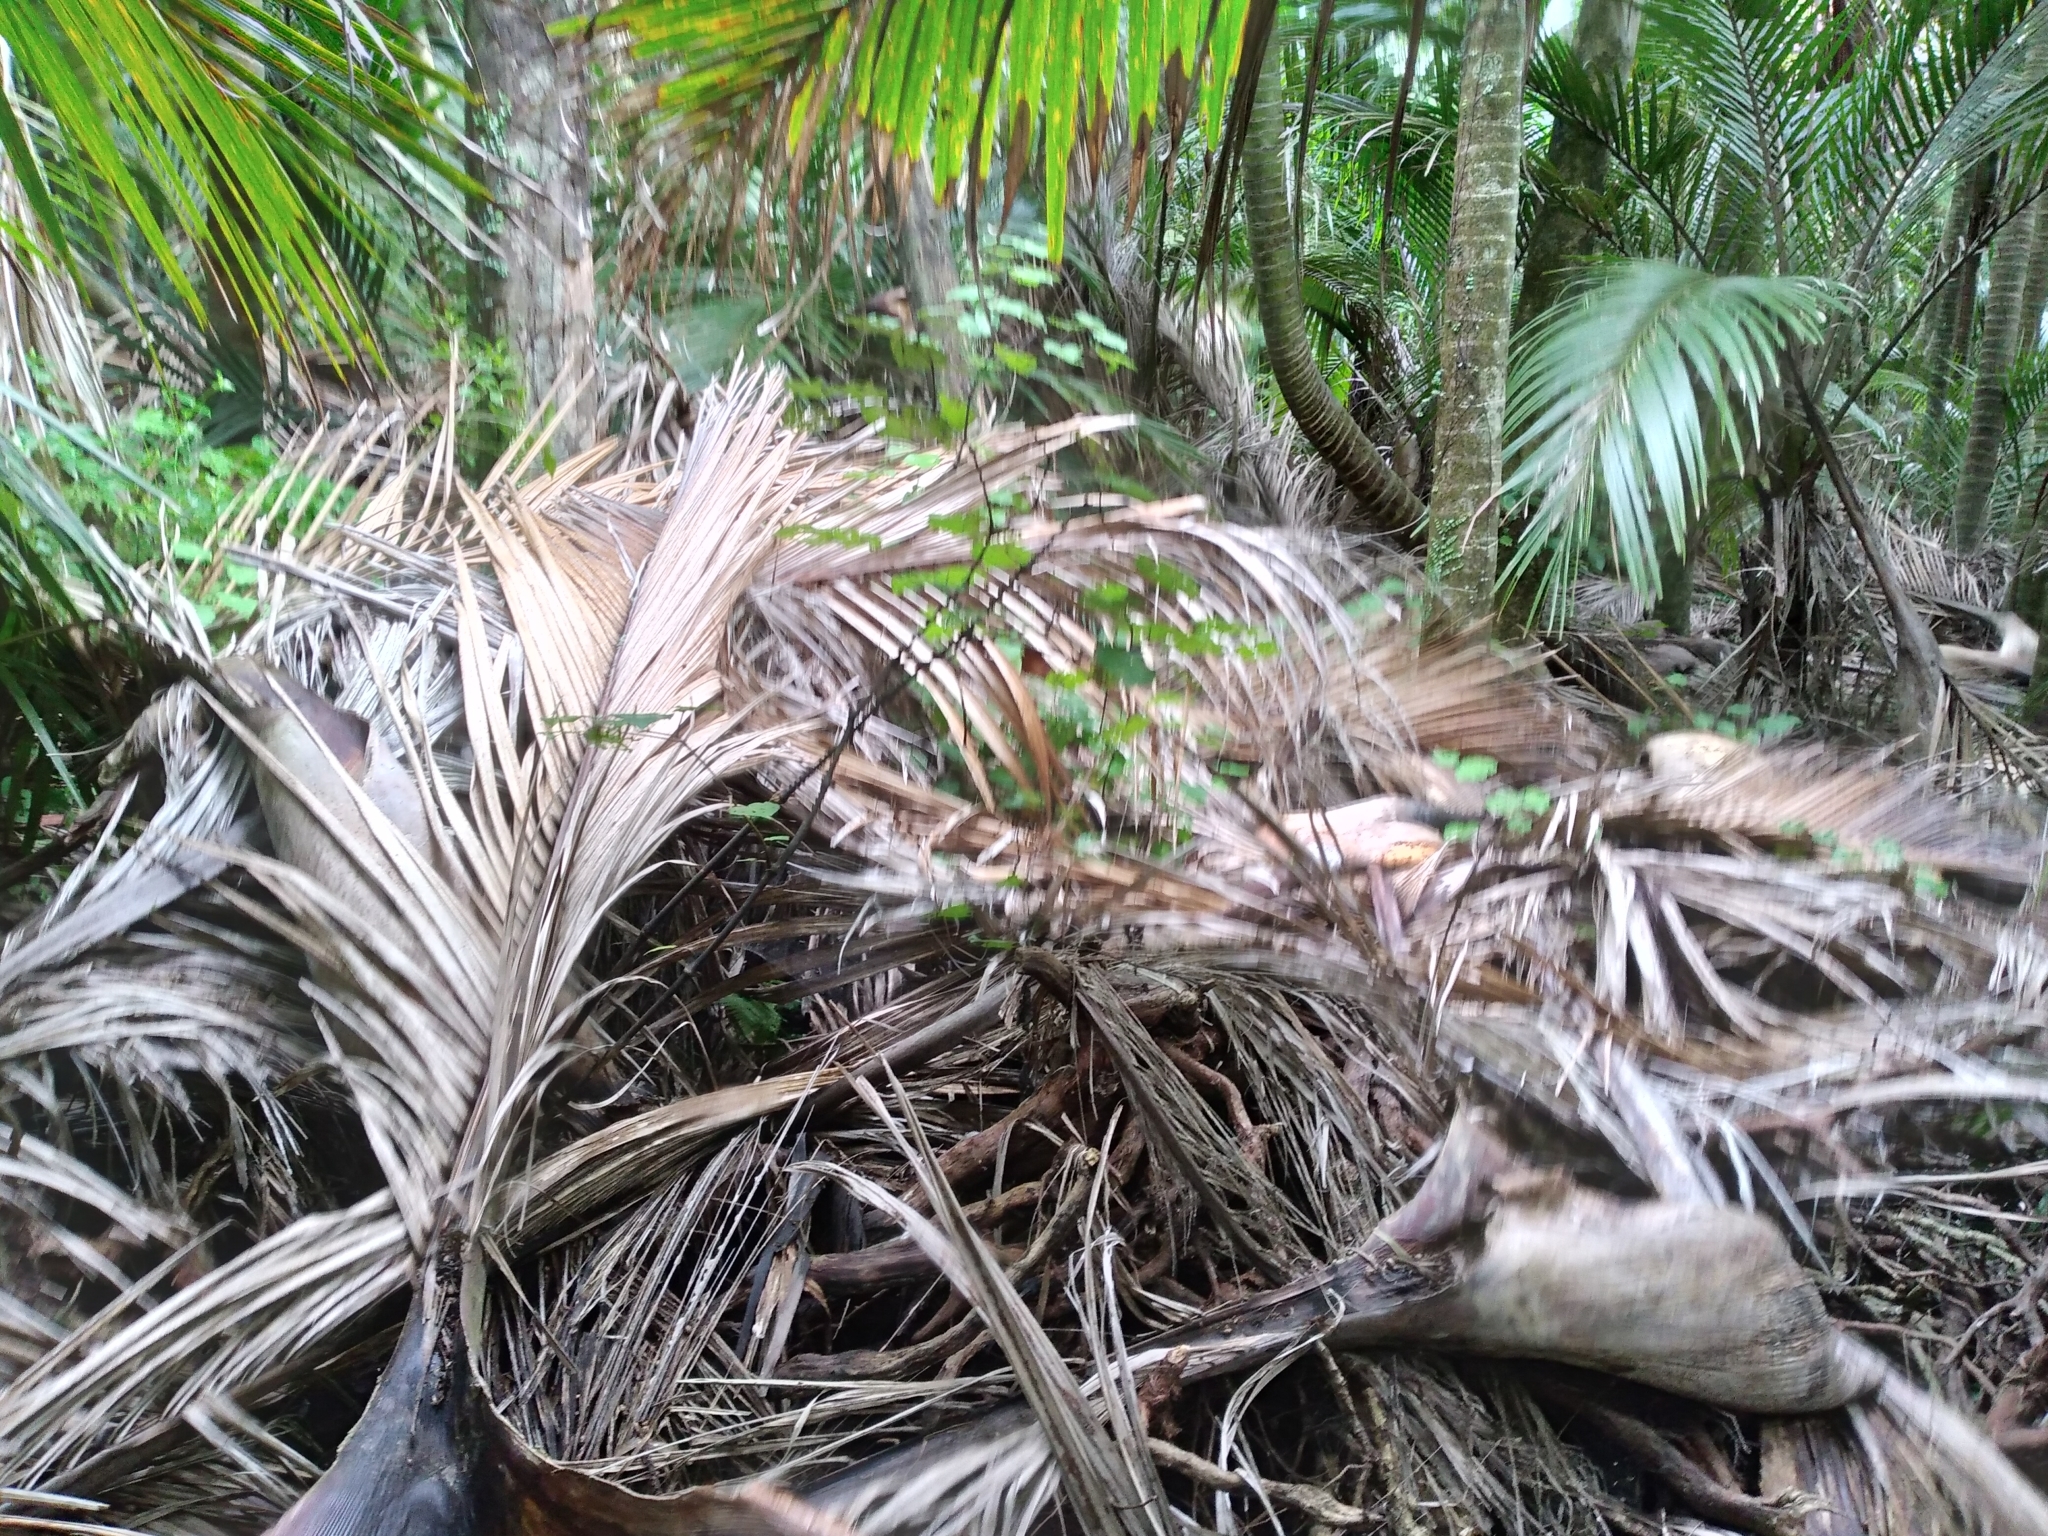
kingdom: Plantae
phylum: Tracheophyta
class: Liliopsida
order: Arecales
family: Arecaceae
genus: Rhopalostylis
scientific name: Rhopalostylis sapida
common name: Feather-duster palm
